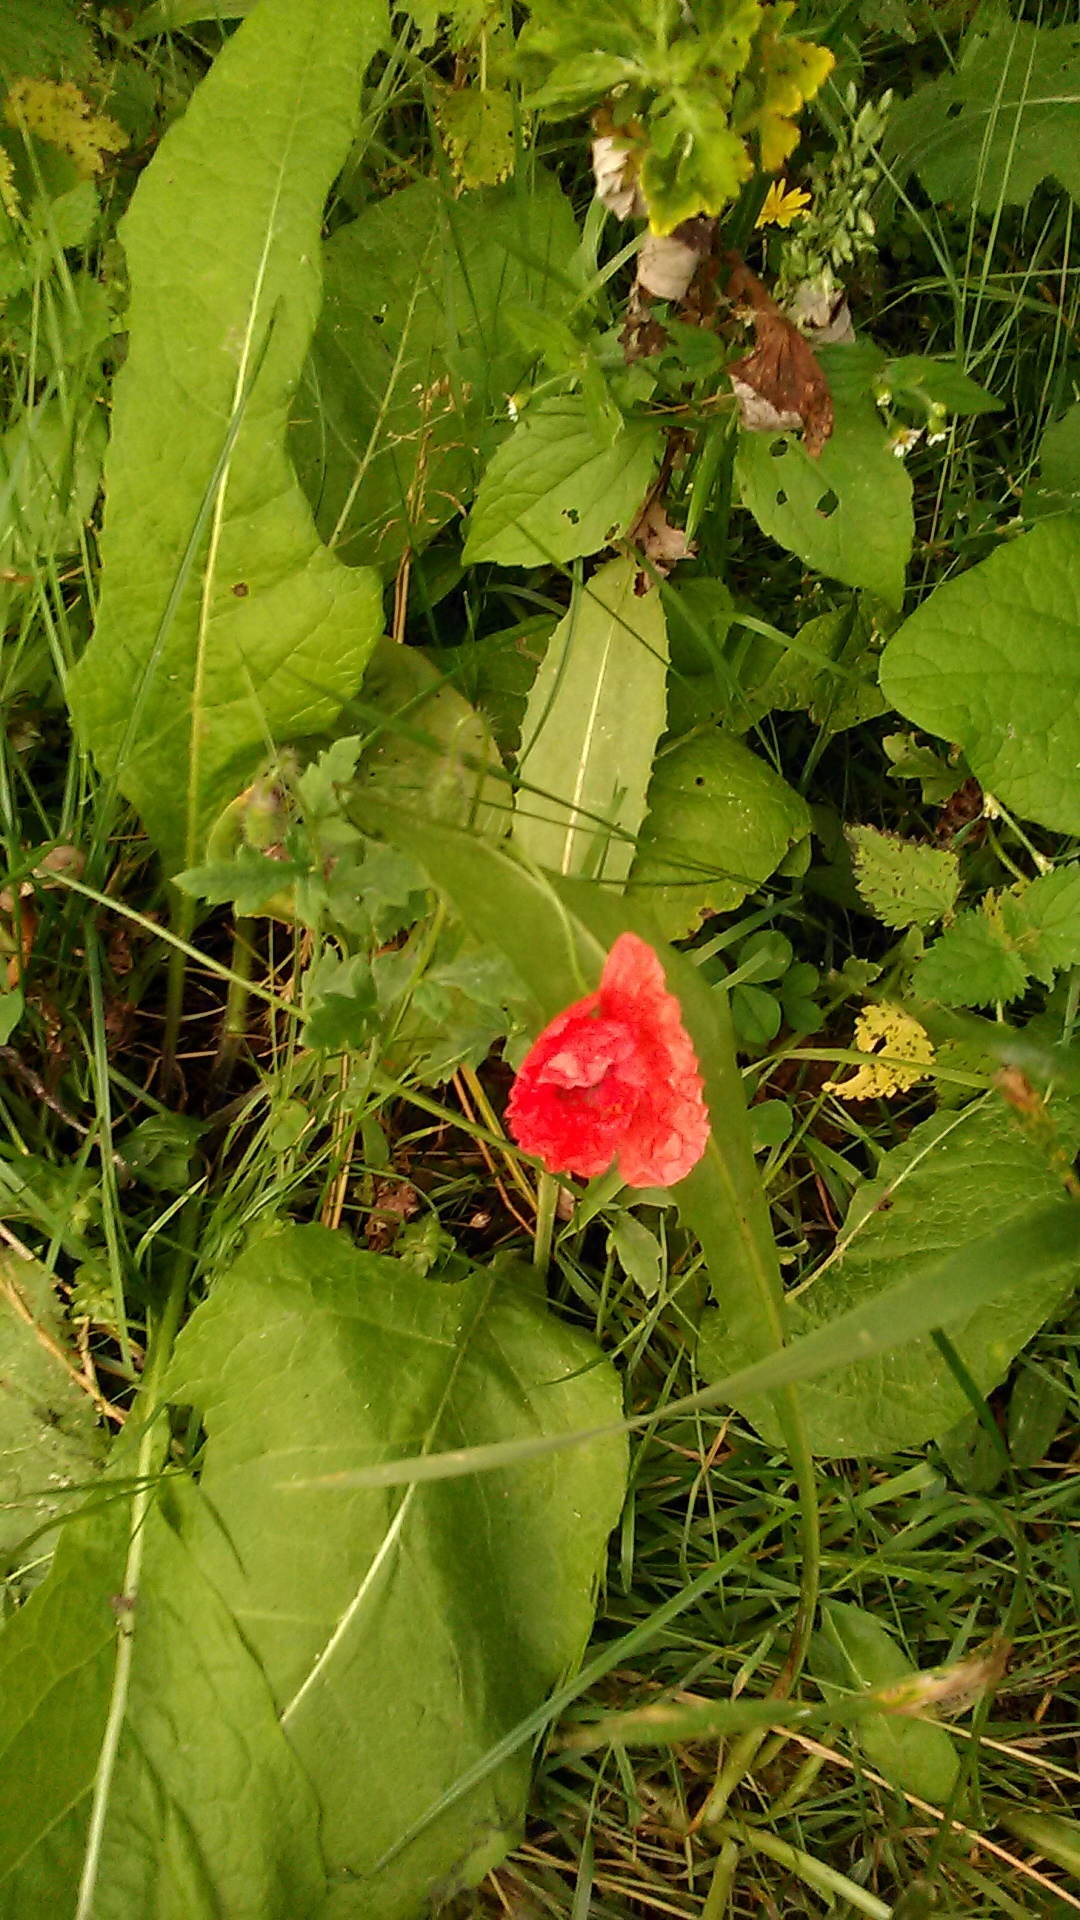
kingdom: Plantae
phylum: Tracheophyta
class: Magnoliopsida
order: Ranunculales
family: Papaveraceae
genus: Papaver
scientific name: Papaver rhoeas
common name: Corn poppy
